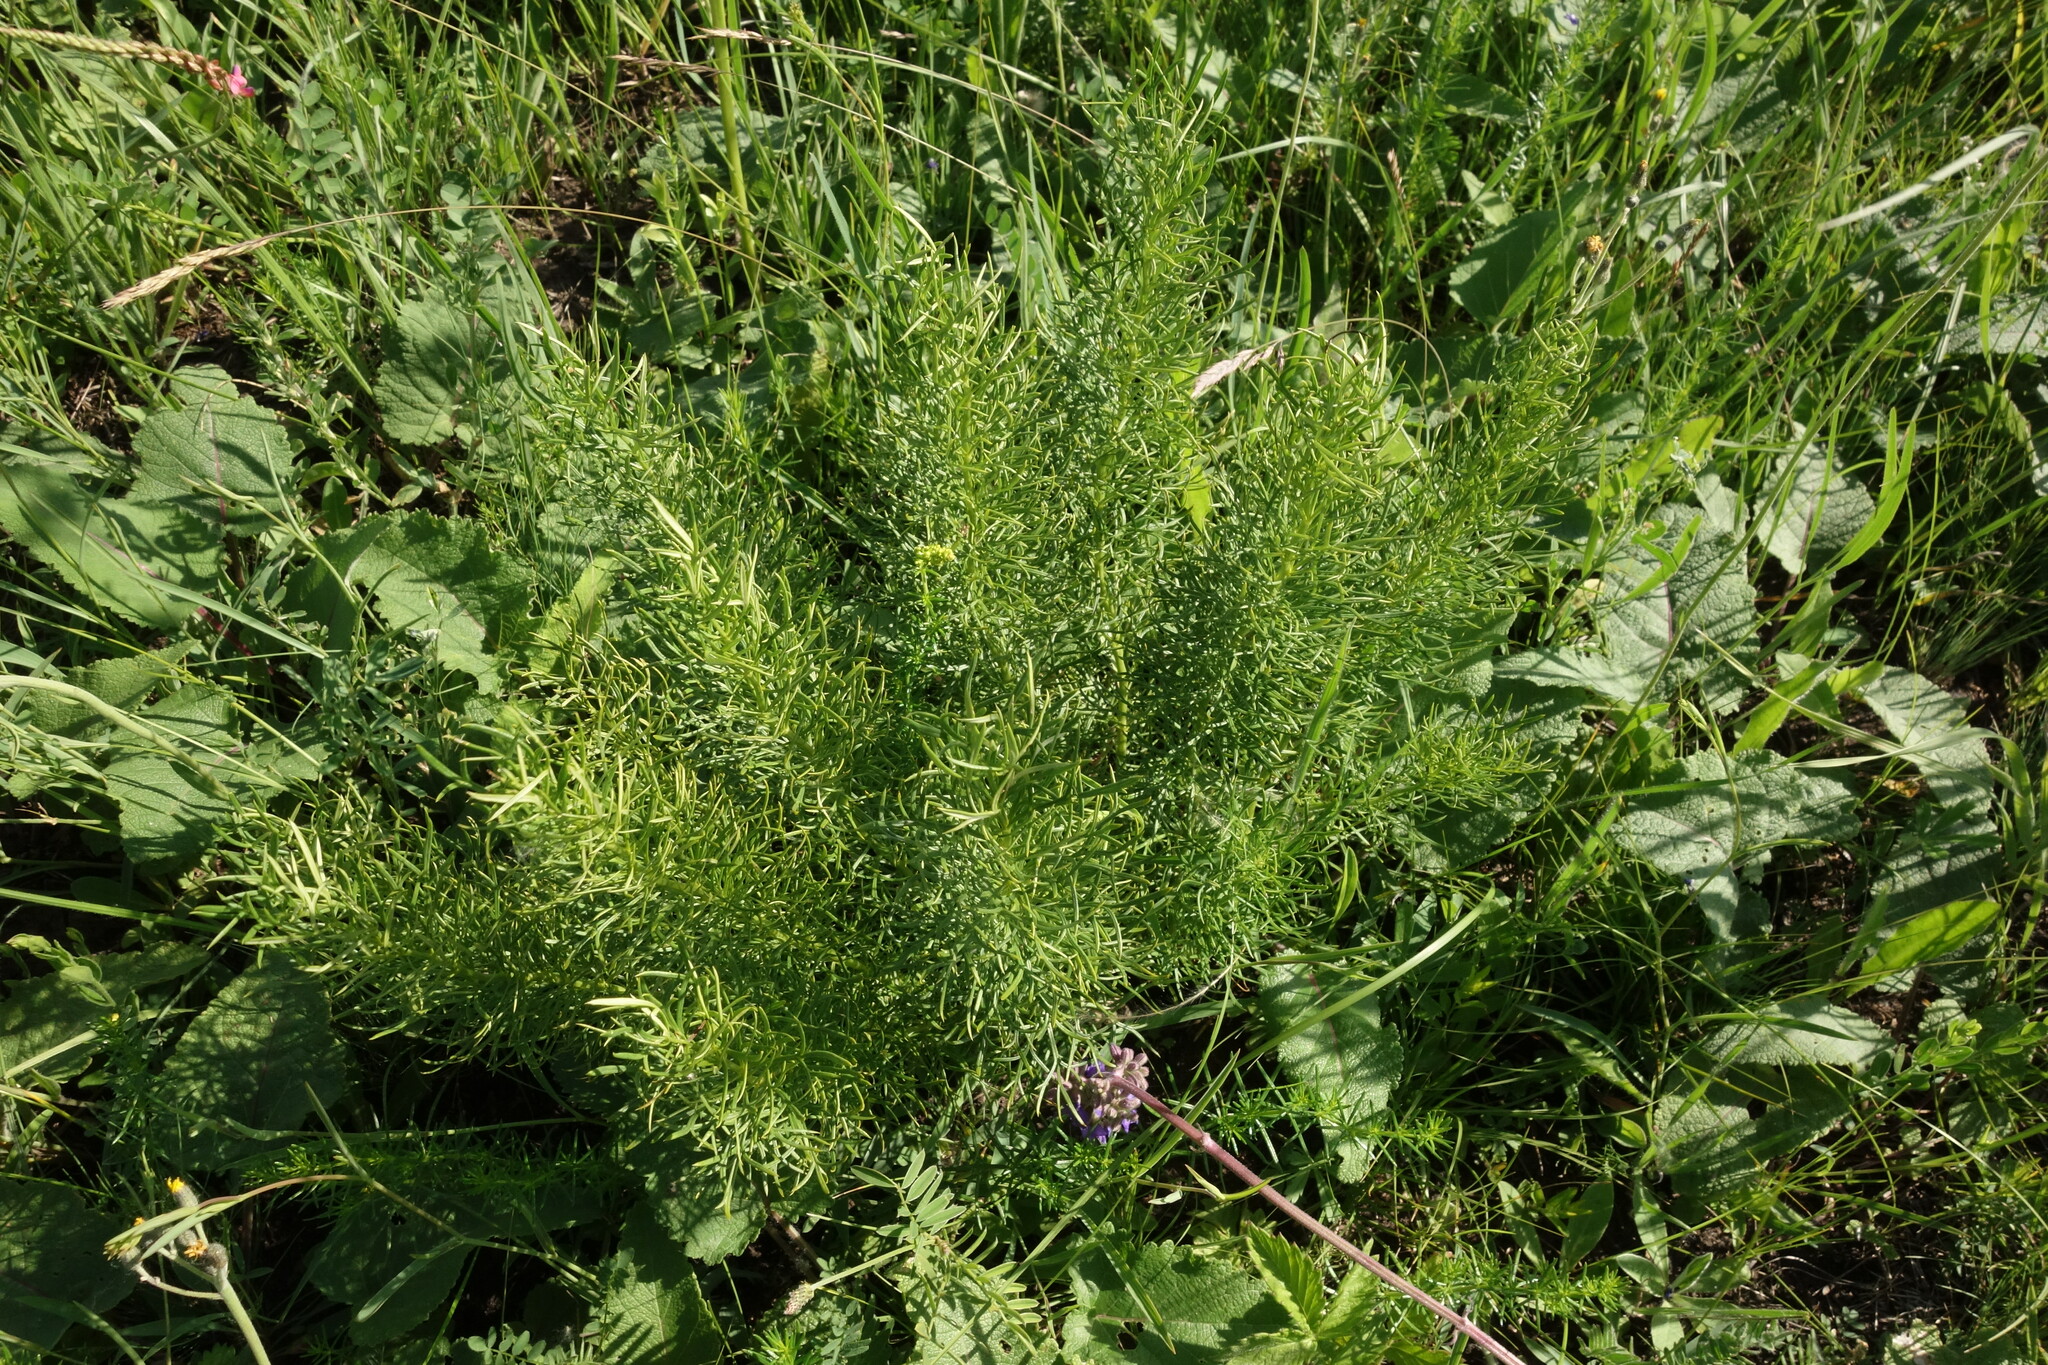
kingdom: Plantae
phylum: Tracheophyta
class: Magnoliopsida
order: Ranunculales
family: Ranunculaceae
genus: Adonis
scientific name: Adonis vernalis
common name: Yellow pheasants-eye
